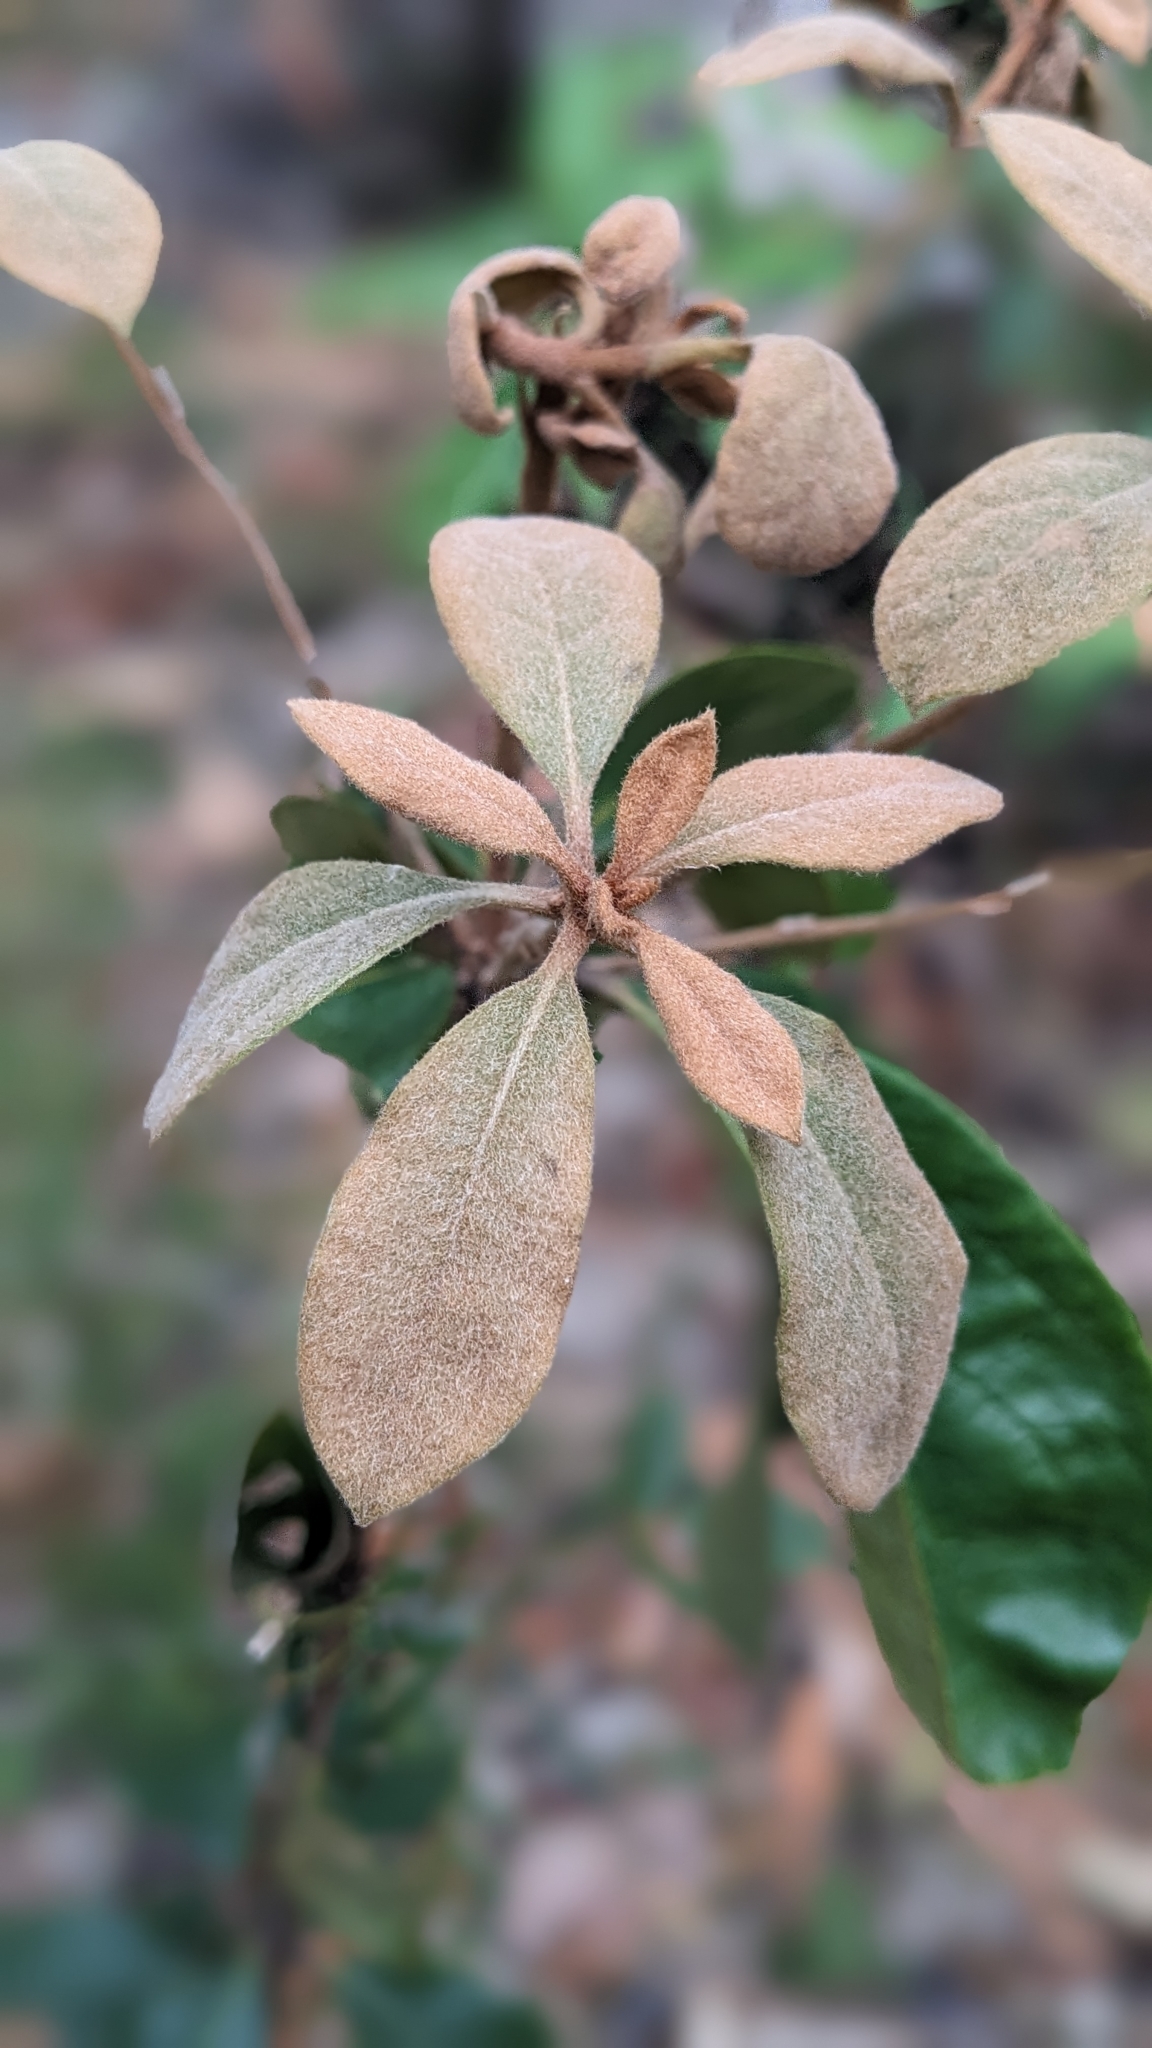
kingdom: Plantae
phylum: Tracheophyta
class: Magnoliopsida
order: Apiales
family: Pittosporaceae
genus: Pittosporum
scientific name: Pittosporum revolutum
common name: Brisbane-laurel
